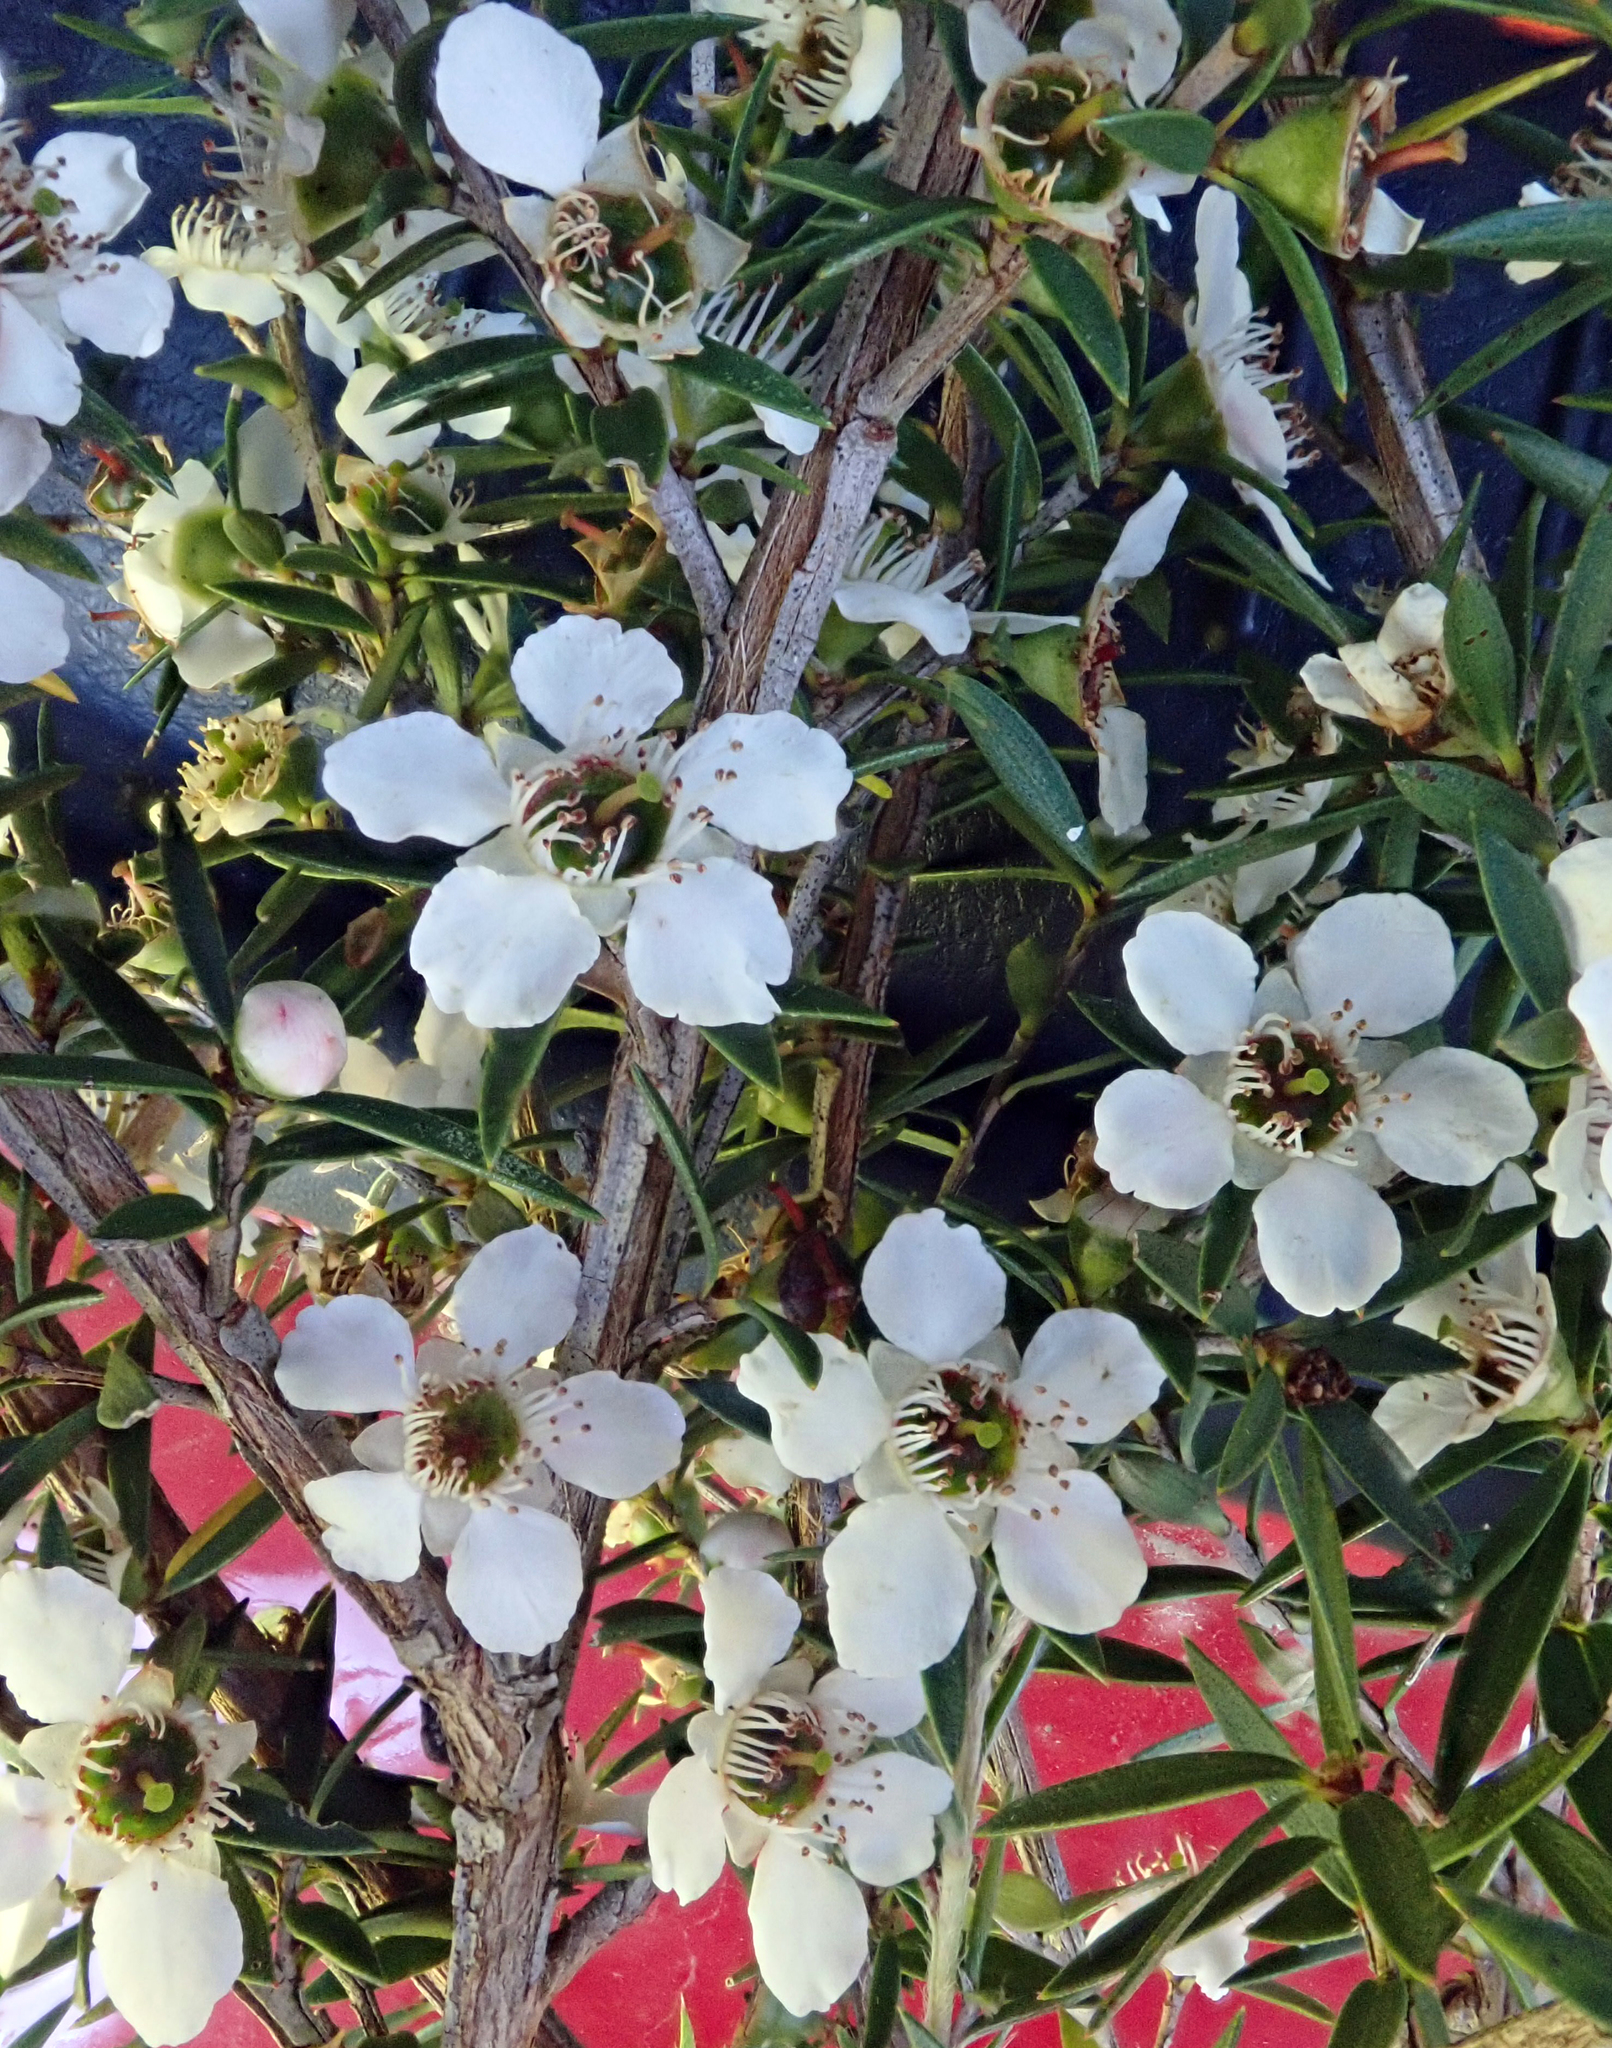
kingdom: Plantae
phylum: Tracheophyta
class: Magnoliopsida
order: Myrtales
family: Myrtaceae
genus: Leptospermum
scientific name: Leptospermum scoparium
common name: Broom tea-tree
